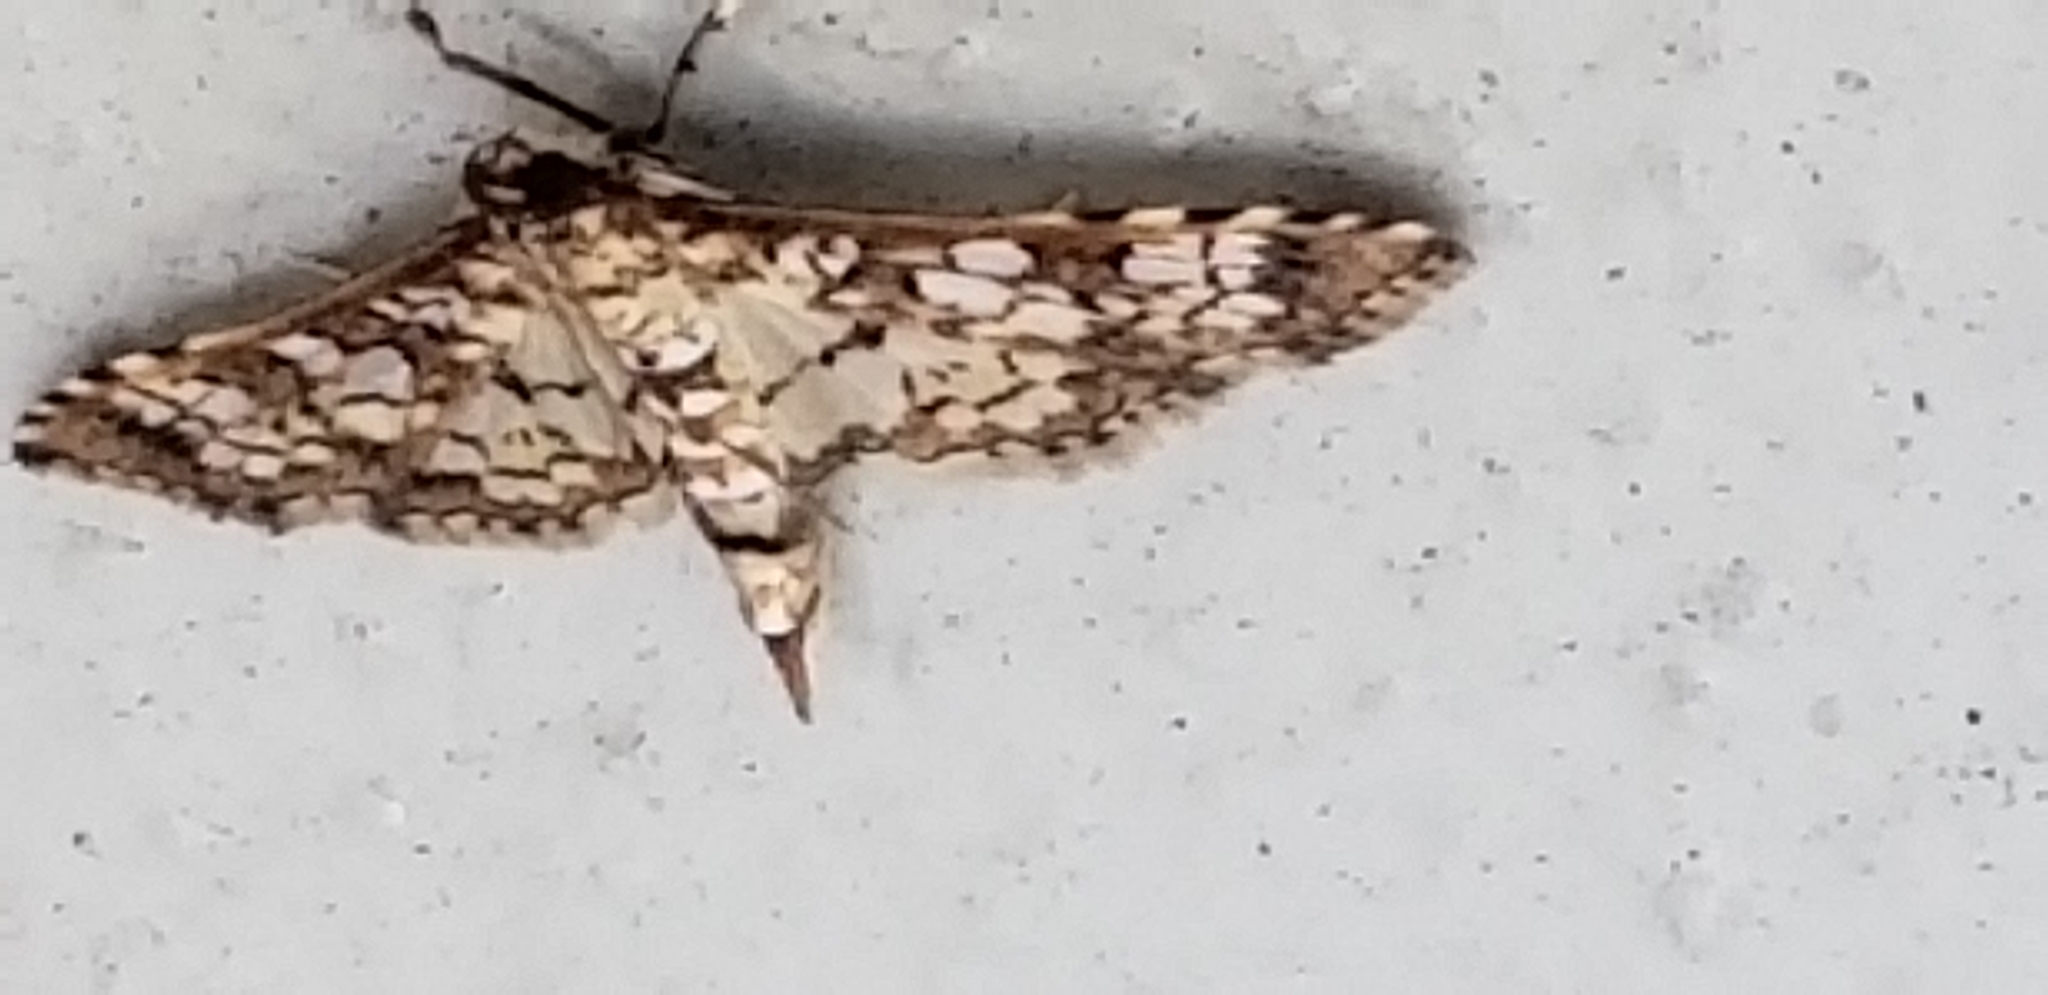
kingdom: Animalia
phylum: Arthropoda
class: Insecta
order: Lepidoptera
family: Crambidae
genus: Samea
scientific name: Samea ecclesialis
